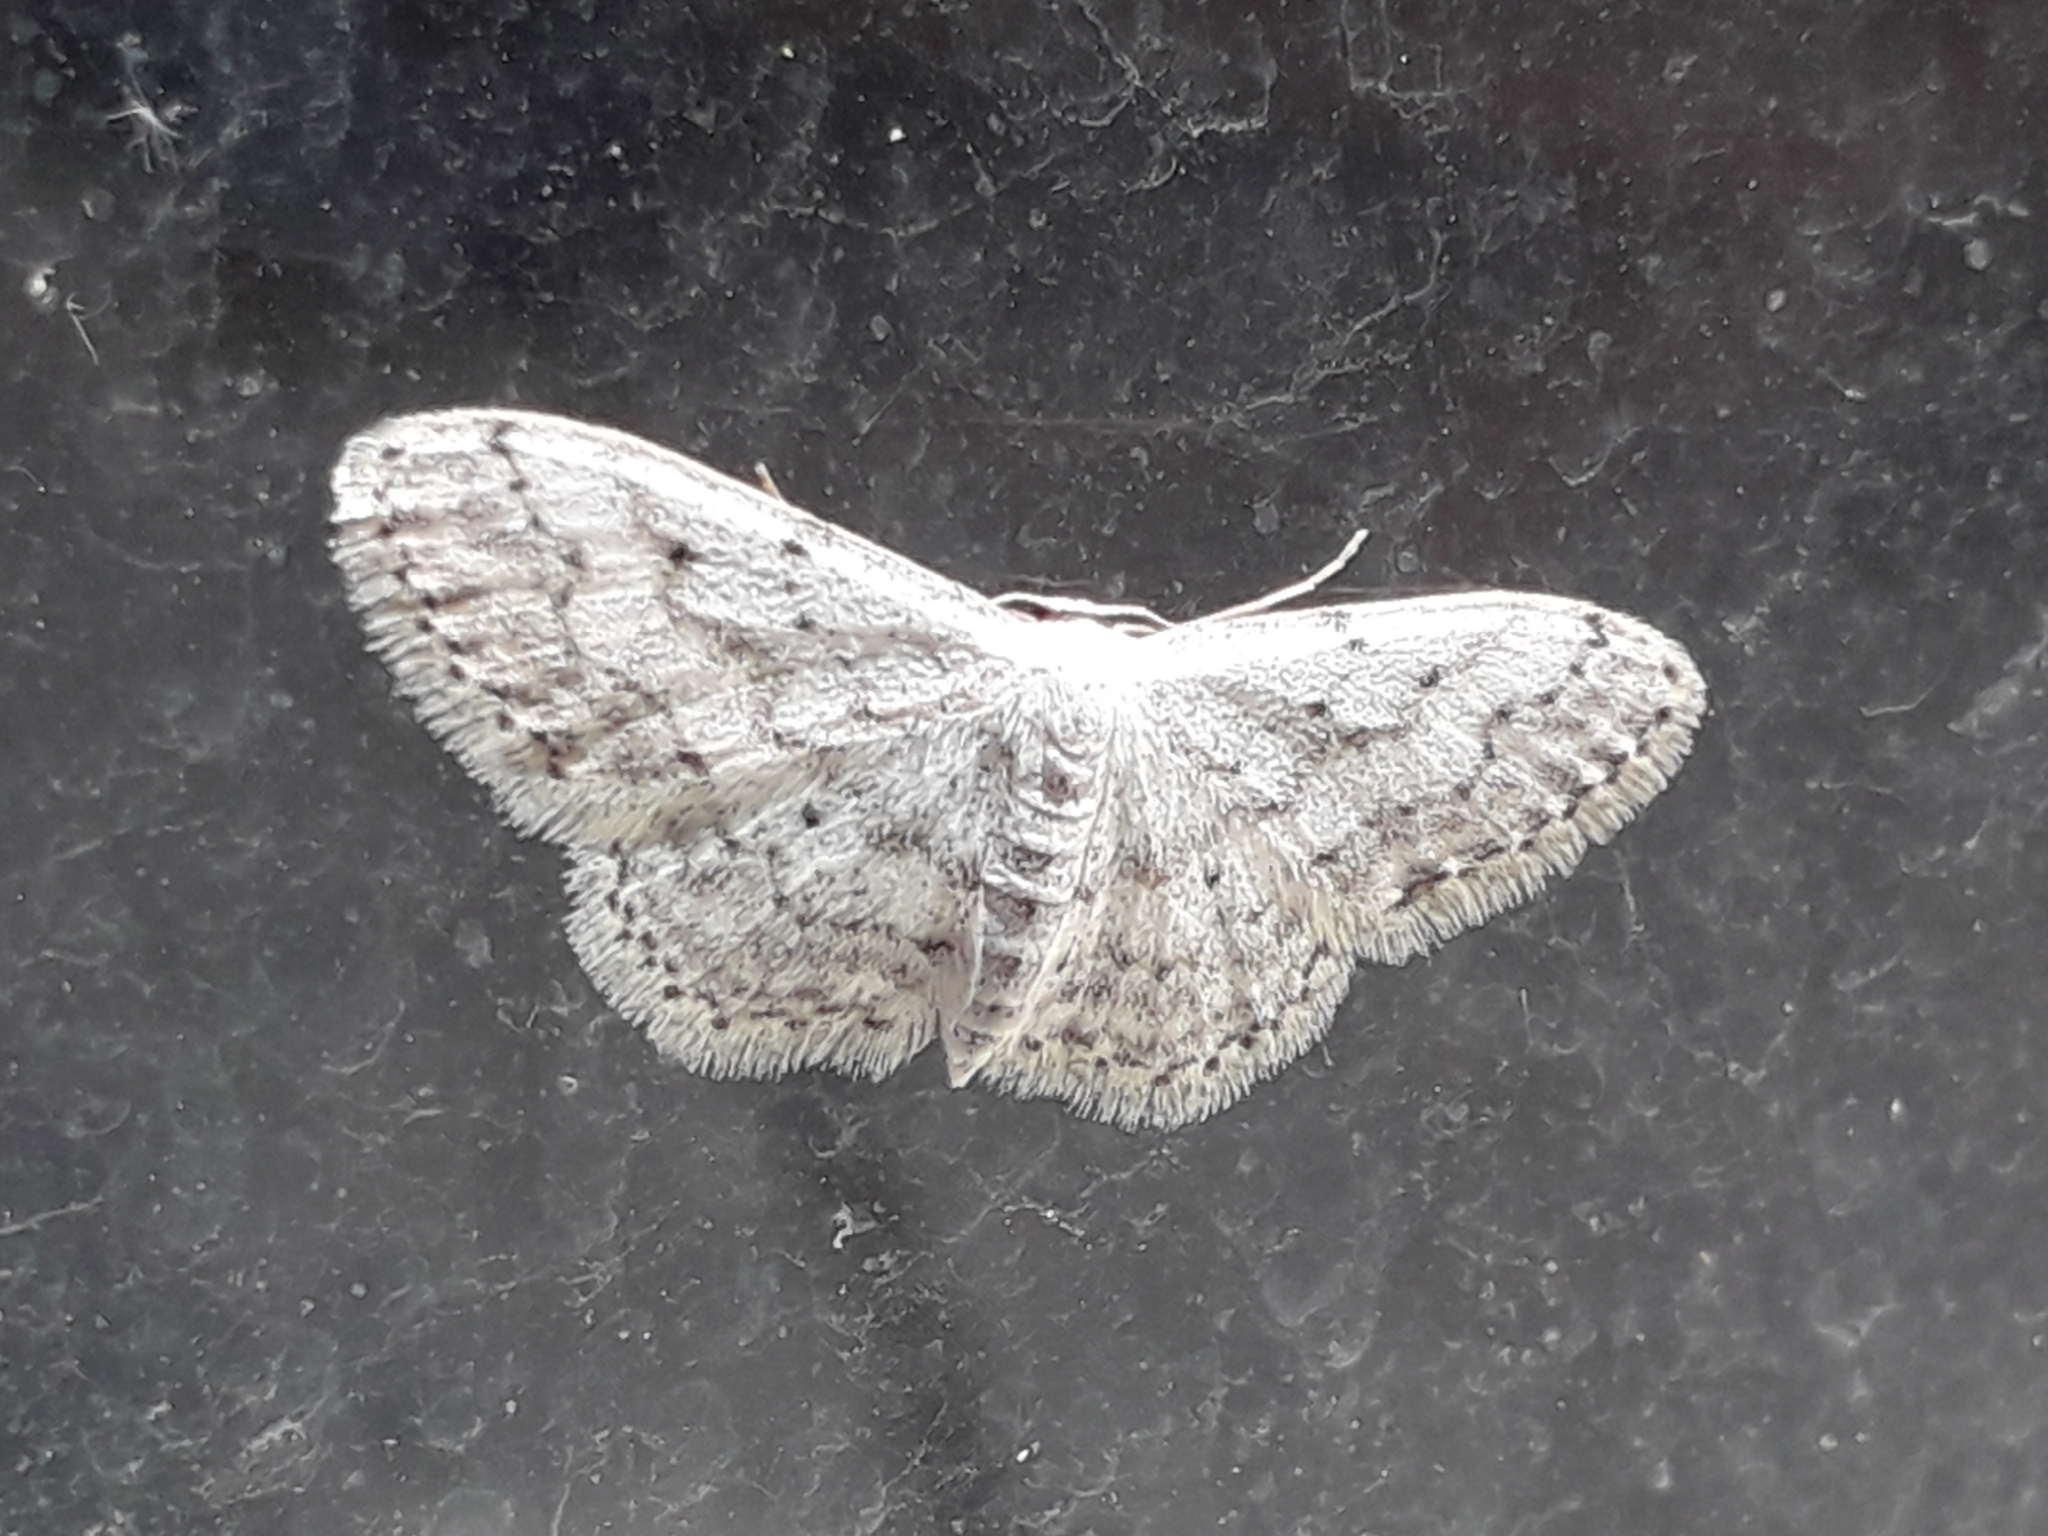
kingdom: Animalia
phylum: Arthropoda
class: Insecta
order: Lepidoptera
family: Geometridae
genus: Idaea
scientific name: Idaea seriata
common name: Small dusty wave
